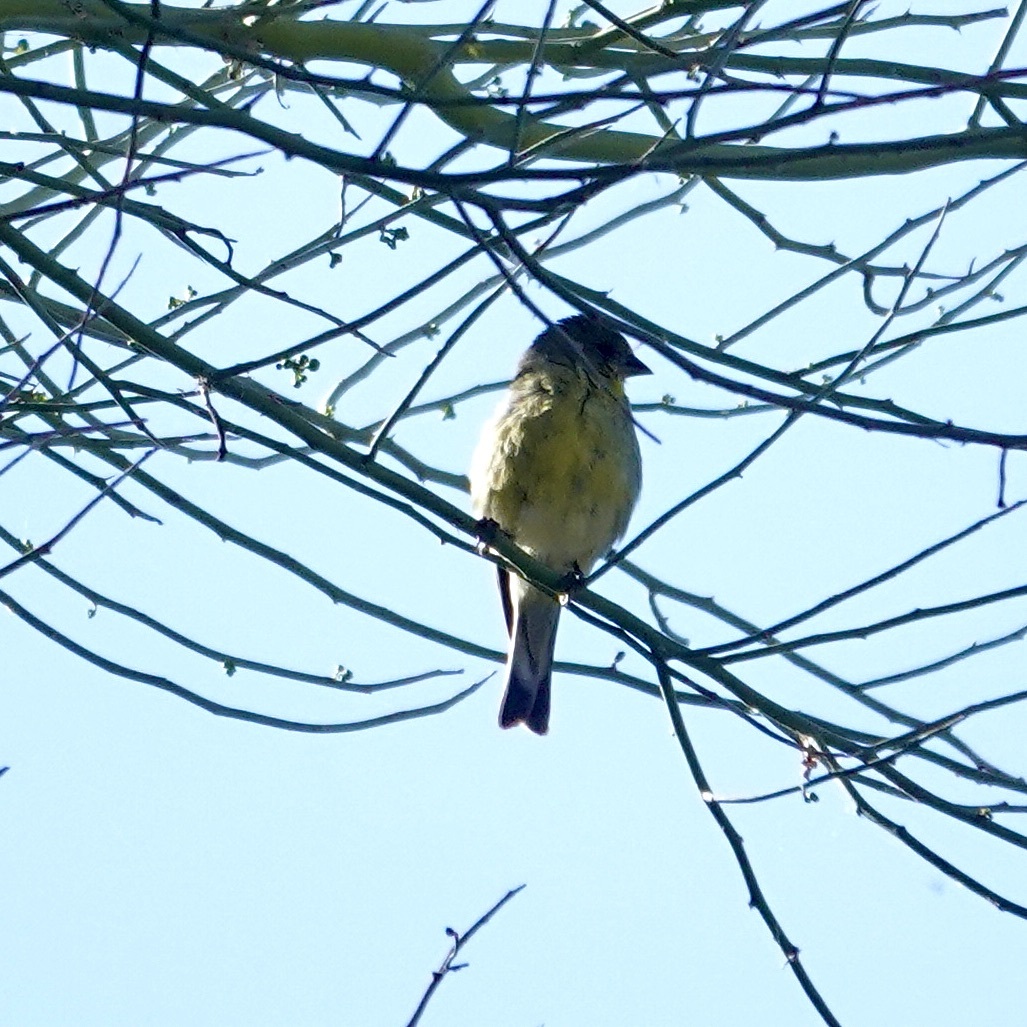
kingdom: Animalia
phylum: Chordata
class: Aves
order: Passeriformes
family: Fringillidae
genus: Spinus
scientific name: Spinus psaltria
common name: Lesser goldfinch
